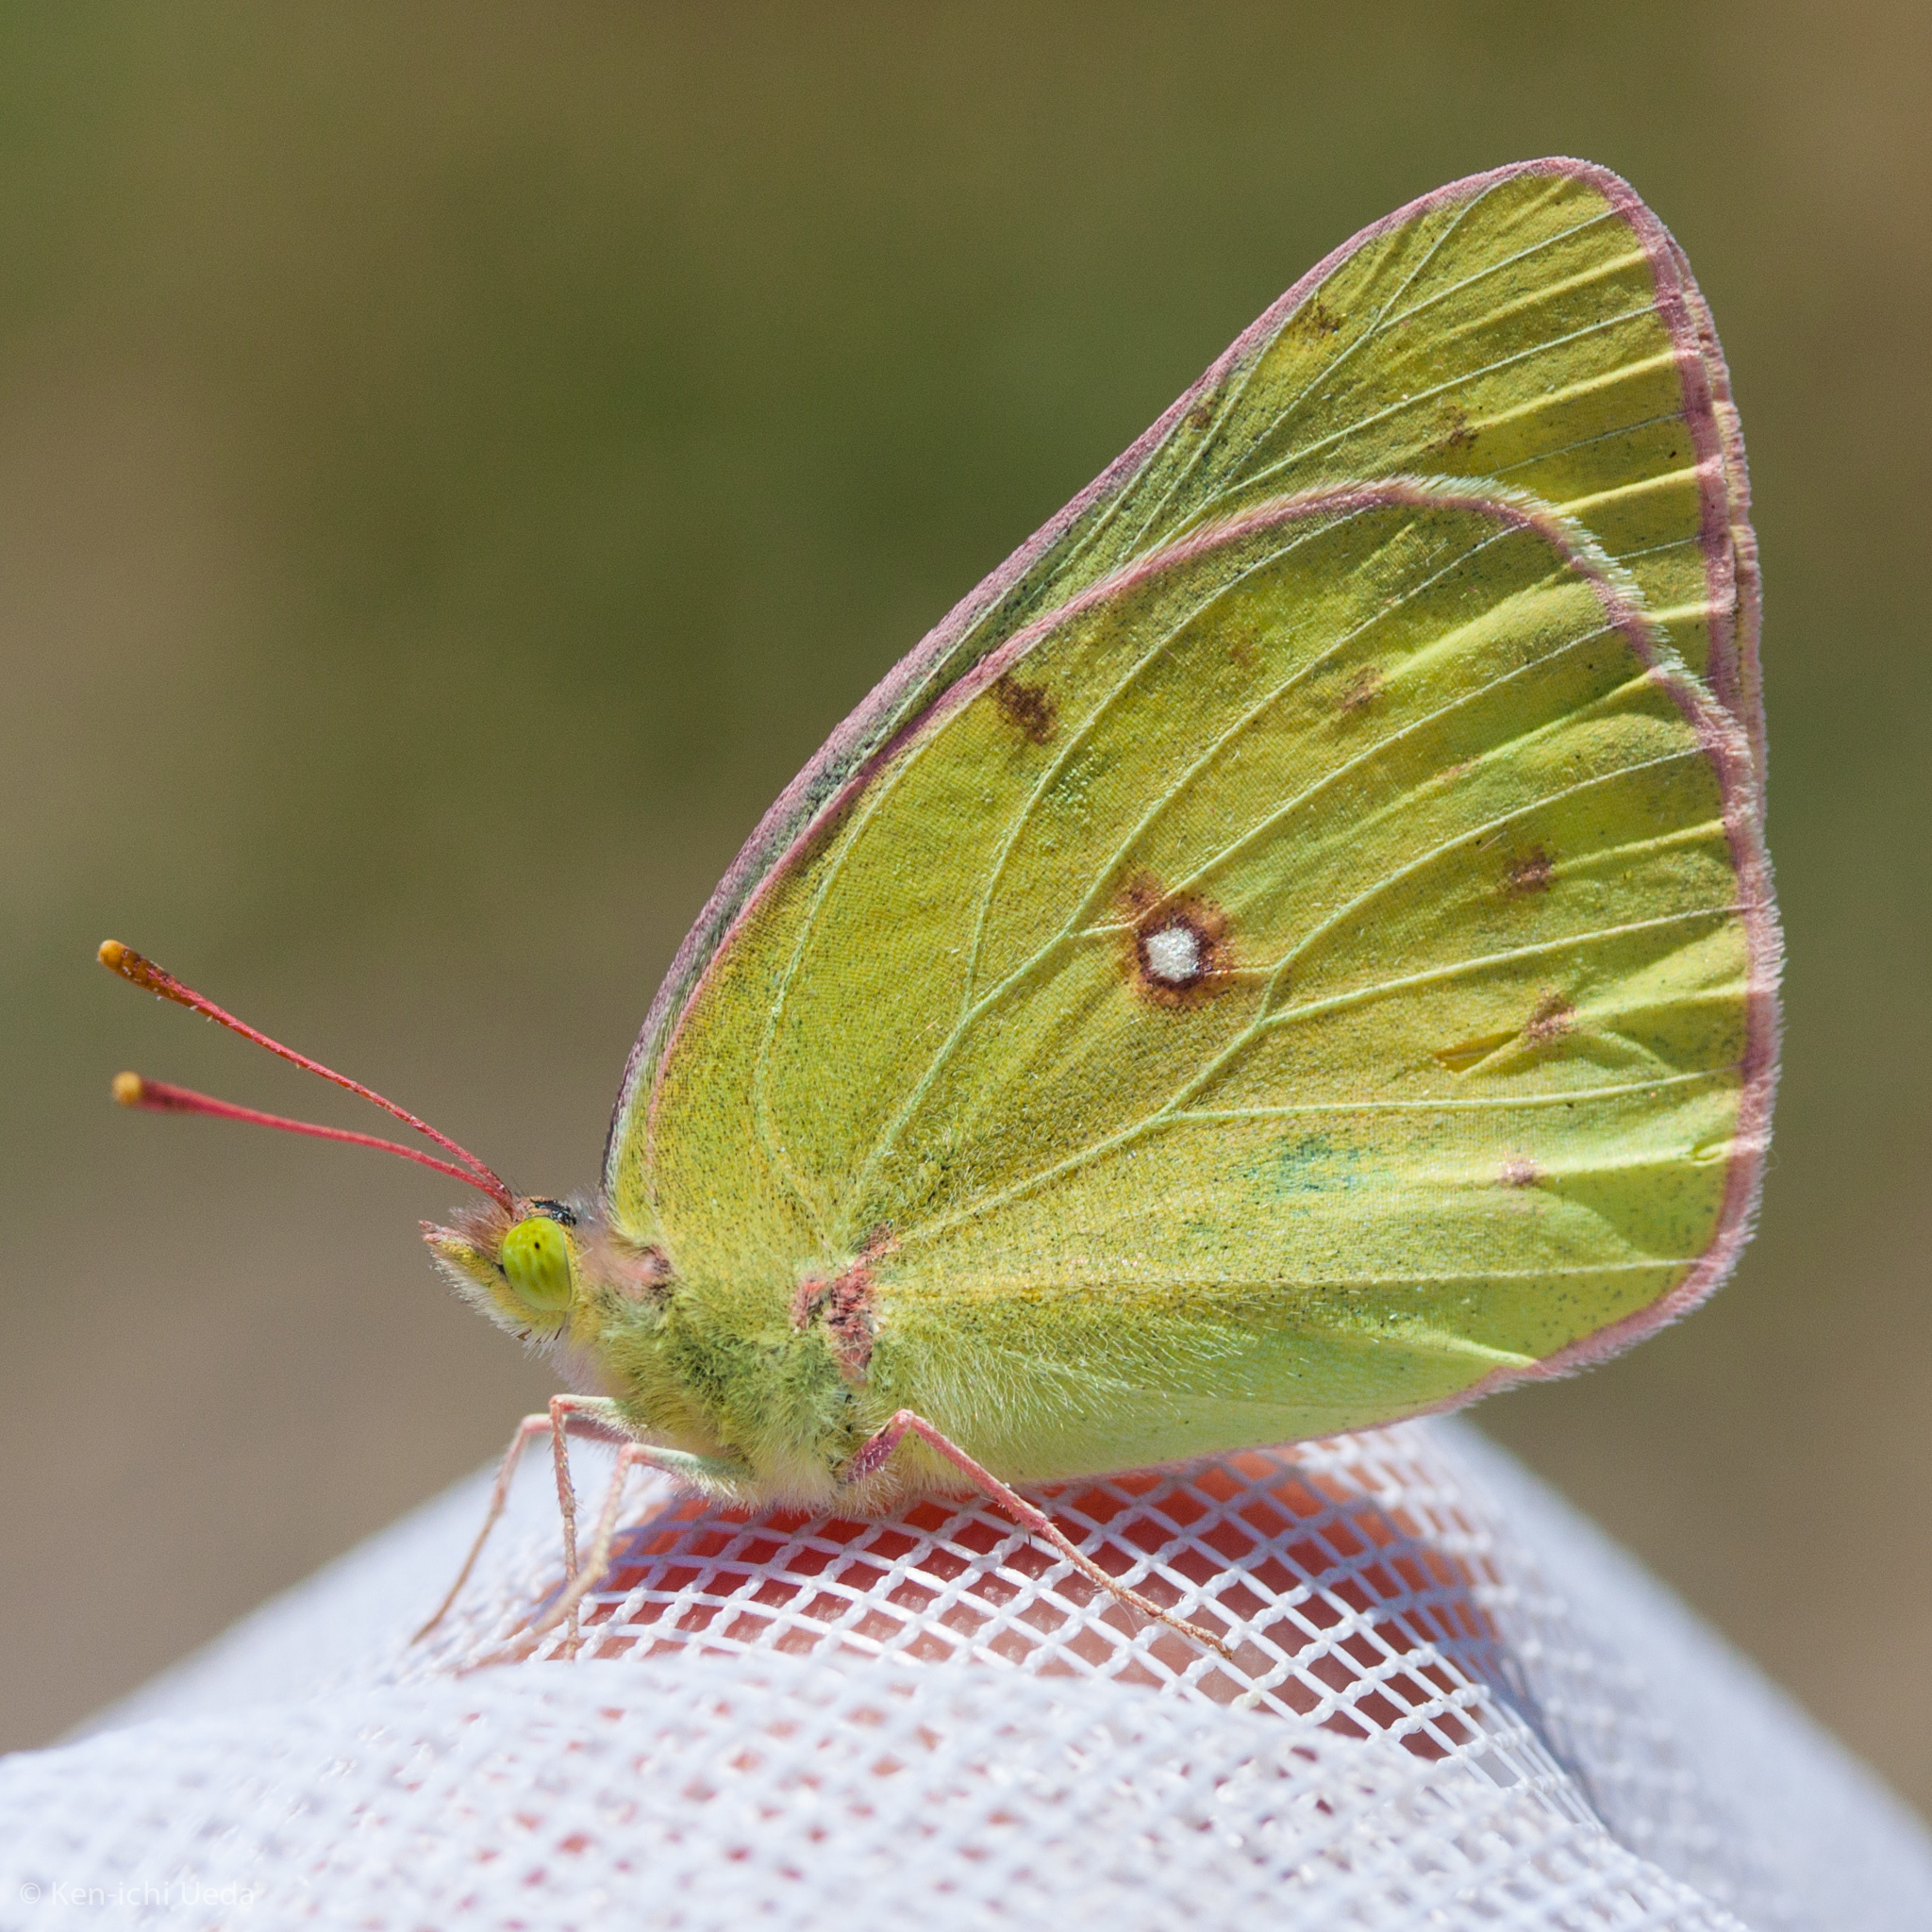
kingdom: Animalia
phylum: Arthropoda
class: Insecta
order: Lepidoptera
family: Pieridae
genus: Colias
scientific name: Colias eurytheme
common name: Alfalfa butterfly
